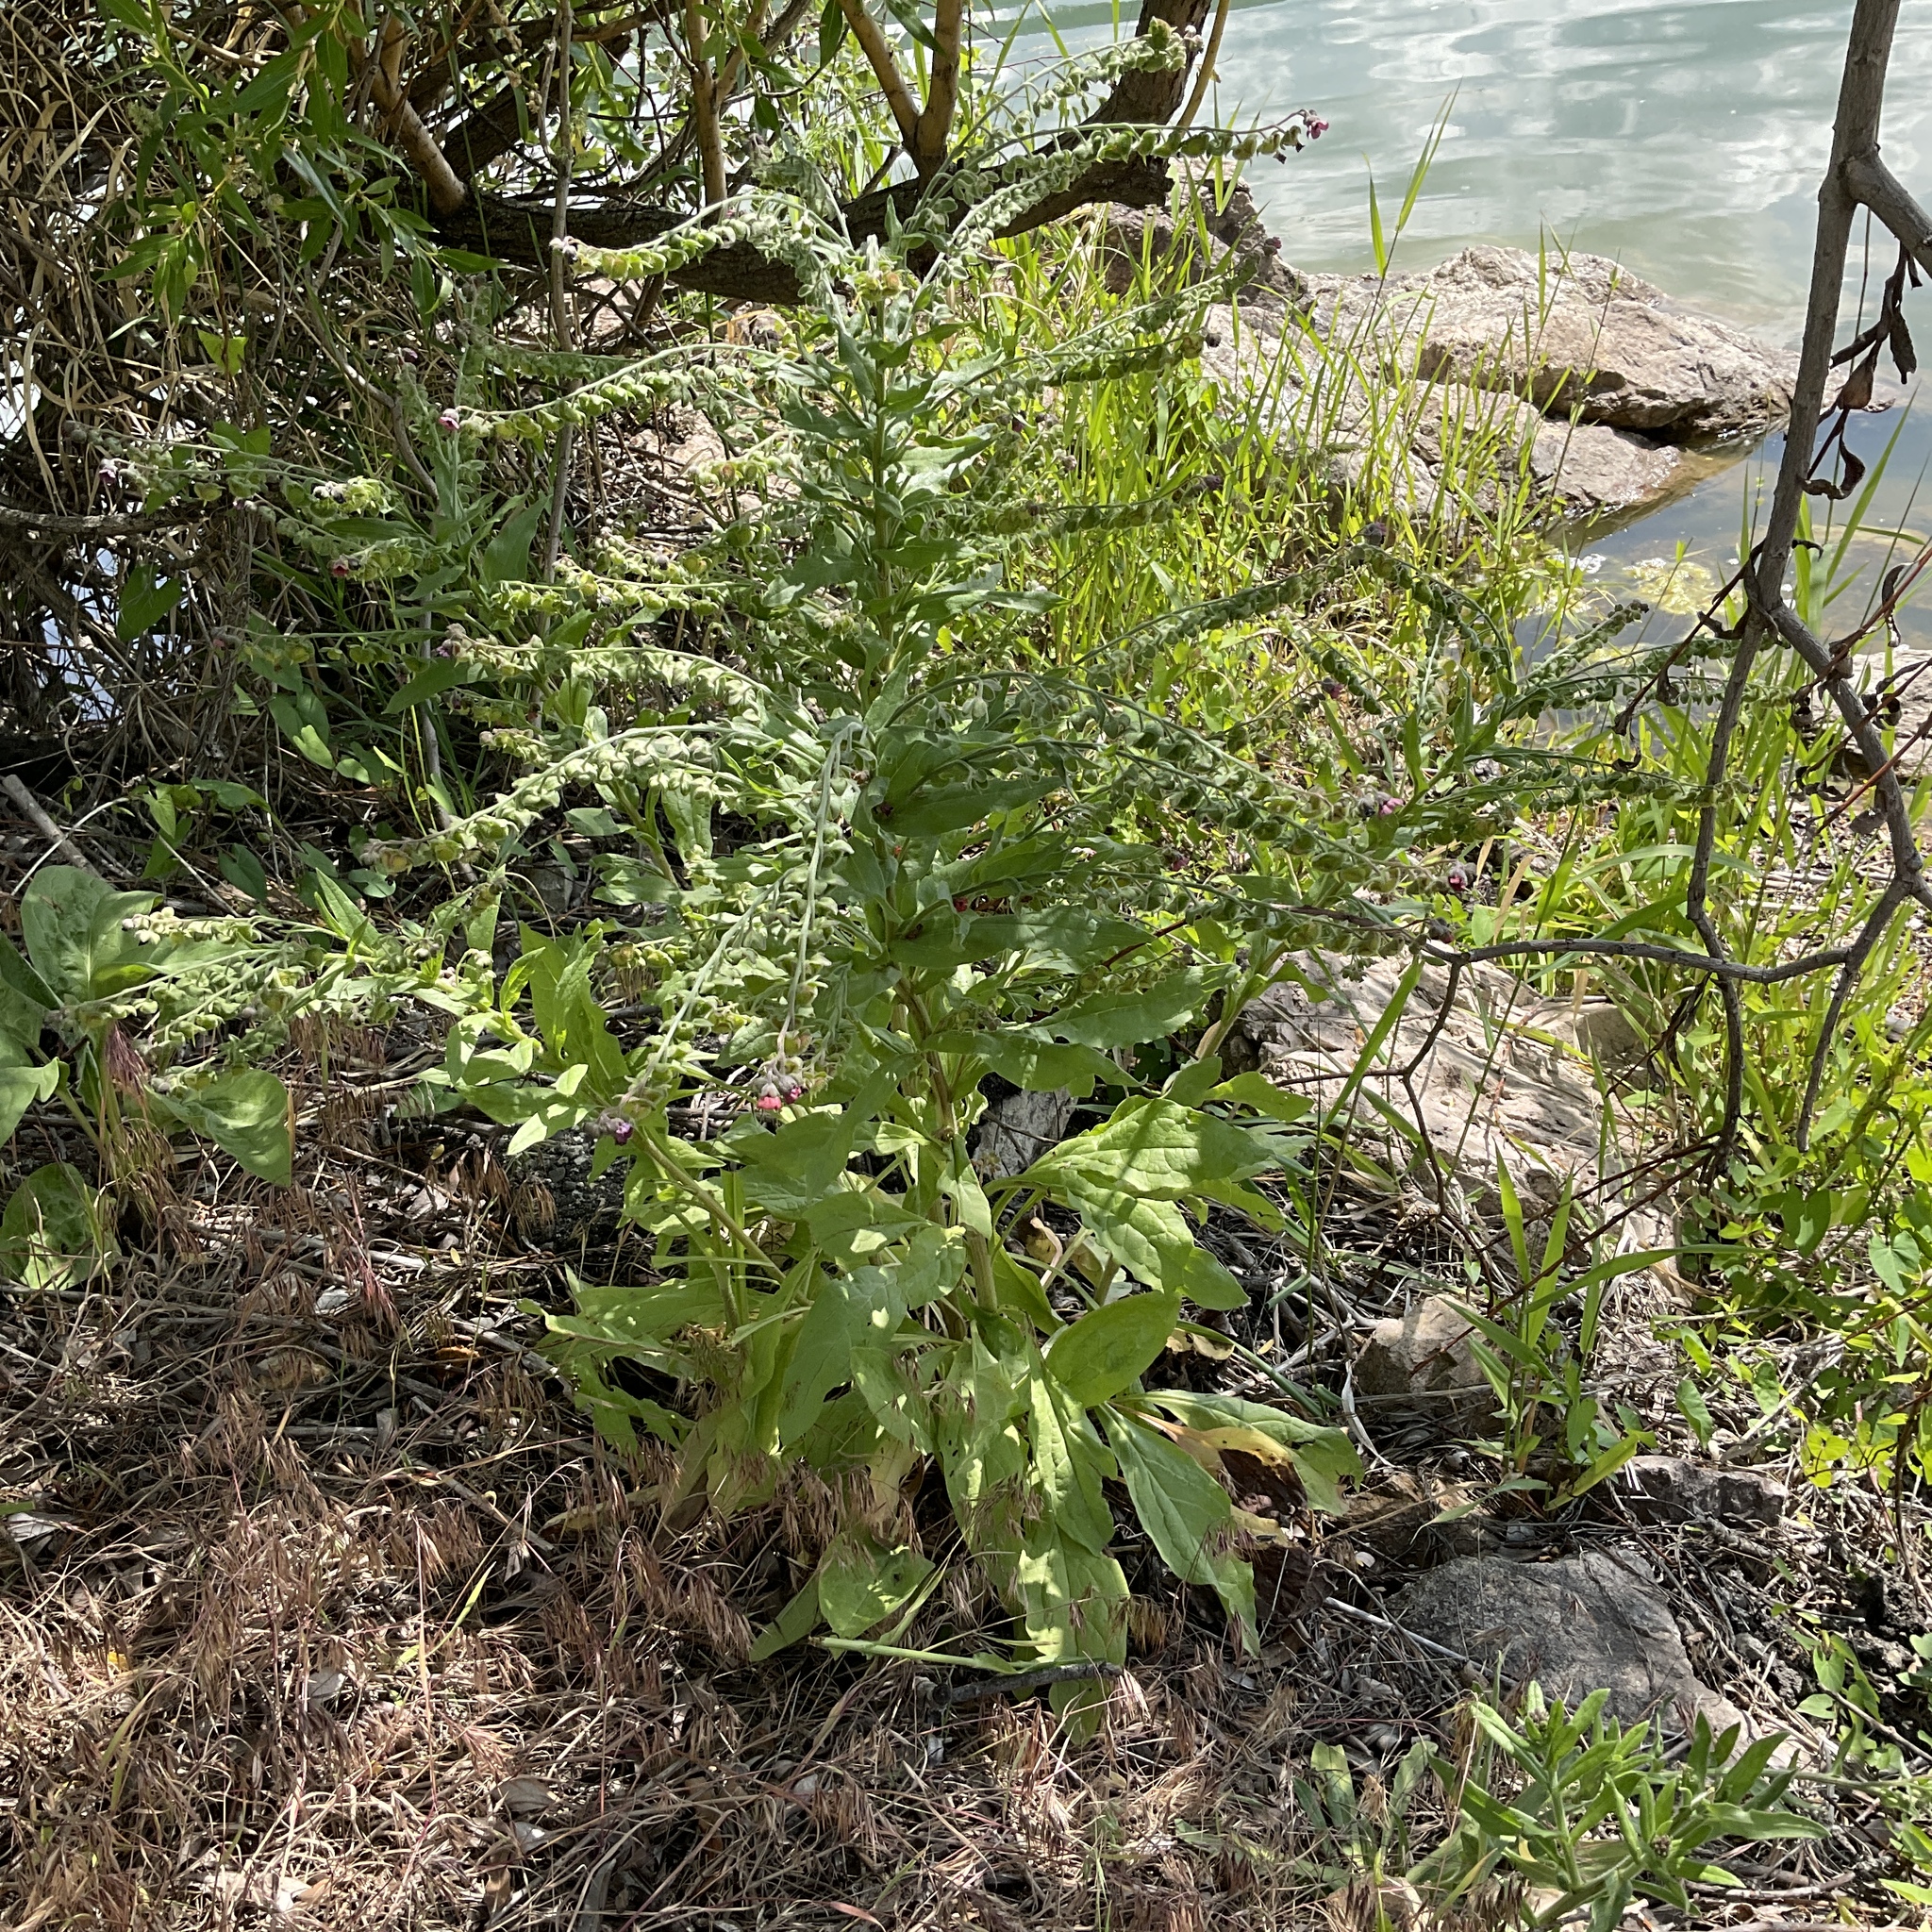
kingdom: Plantae
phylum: Tracheophyta
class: Magnoliopsida
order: Boraginales
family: Boraginaceae
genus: Cynoglossum
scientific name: Cynoglossum officinale
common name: Hound's-tongue
